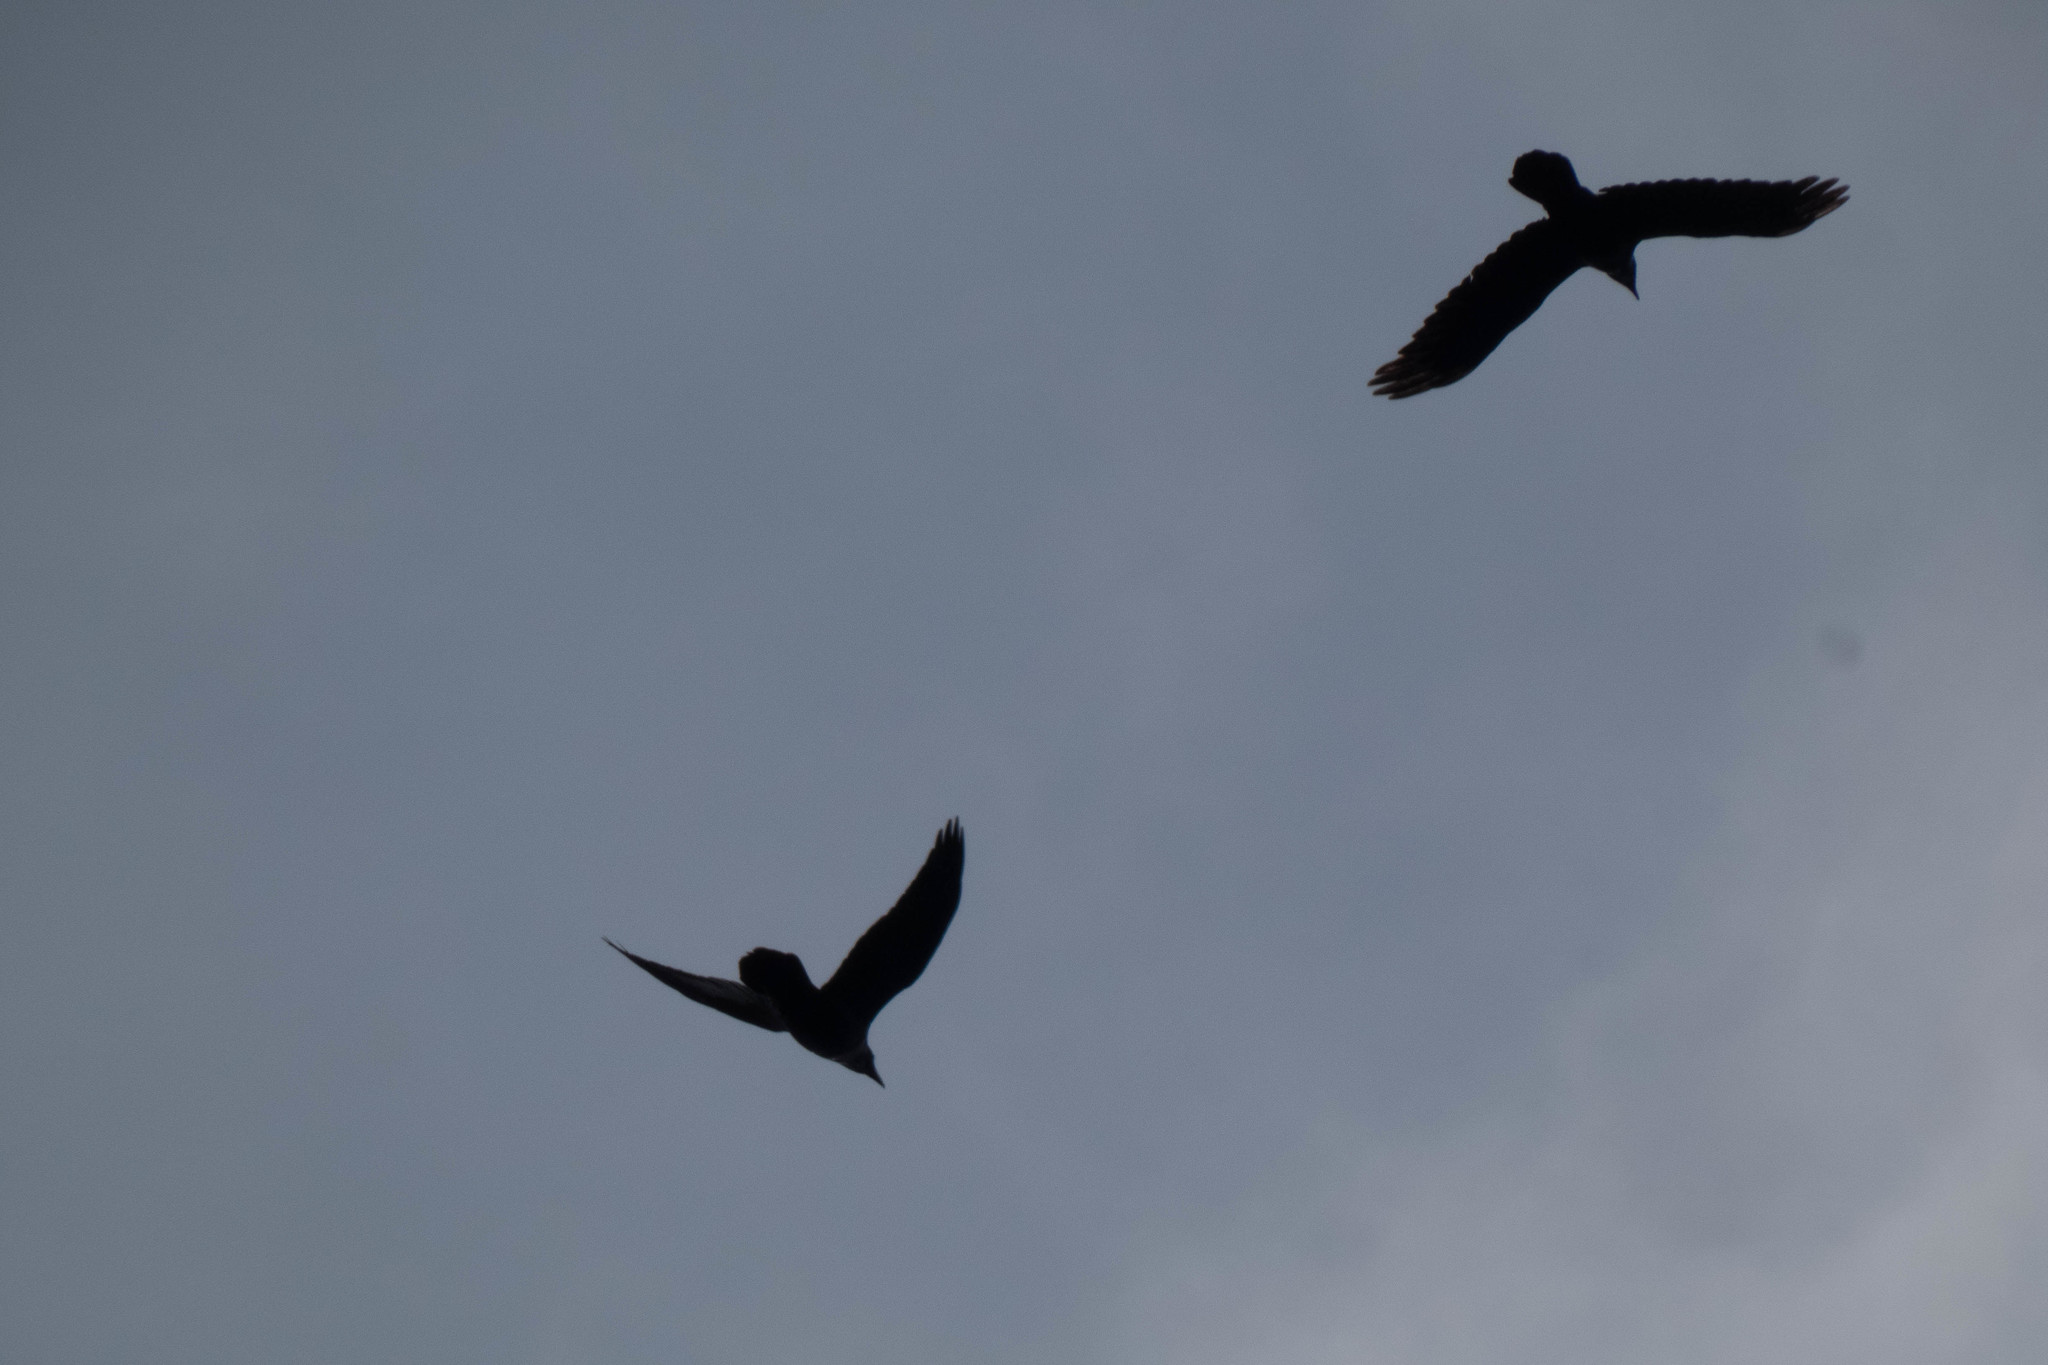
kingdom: Animalia
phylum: Chordata
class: Aves
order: Passeriformes
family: Corvidae
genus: Corvus
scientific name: Corvus corax
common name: Common raven
